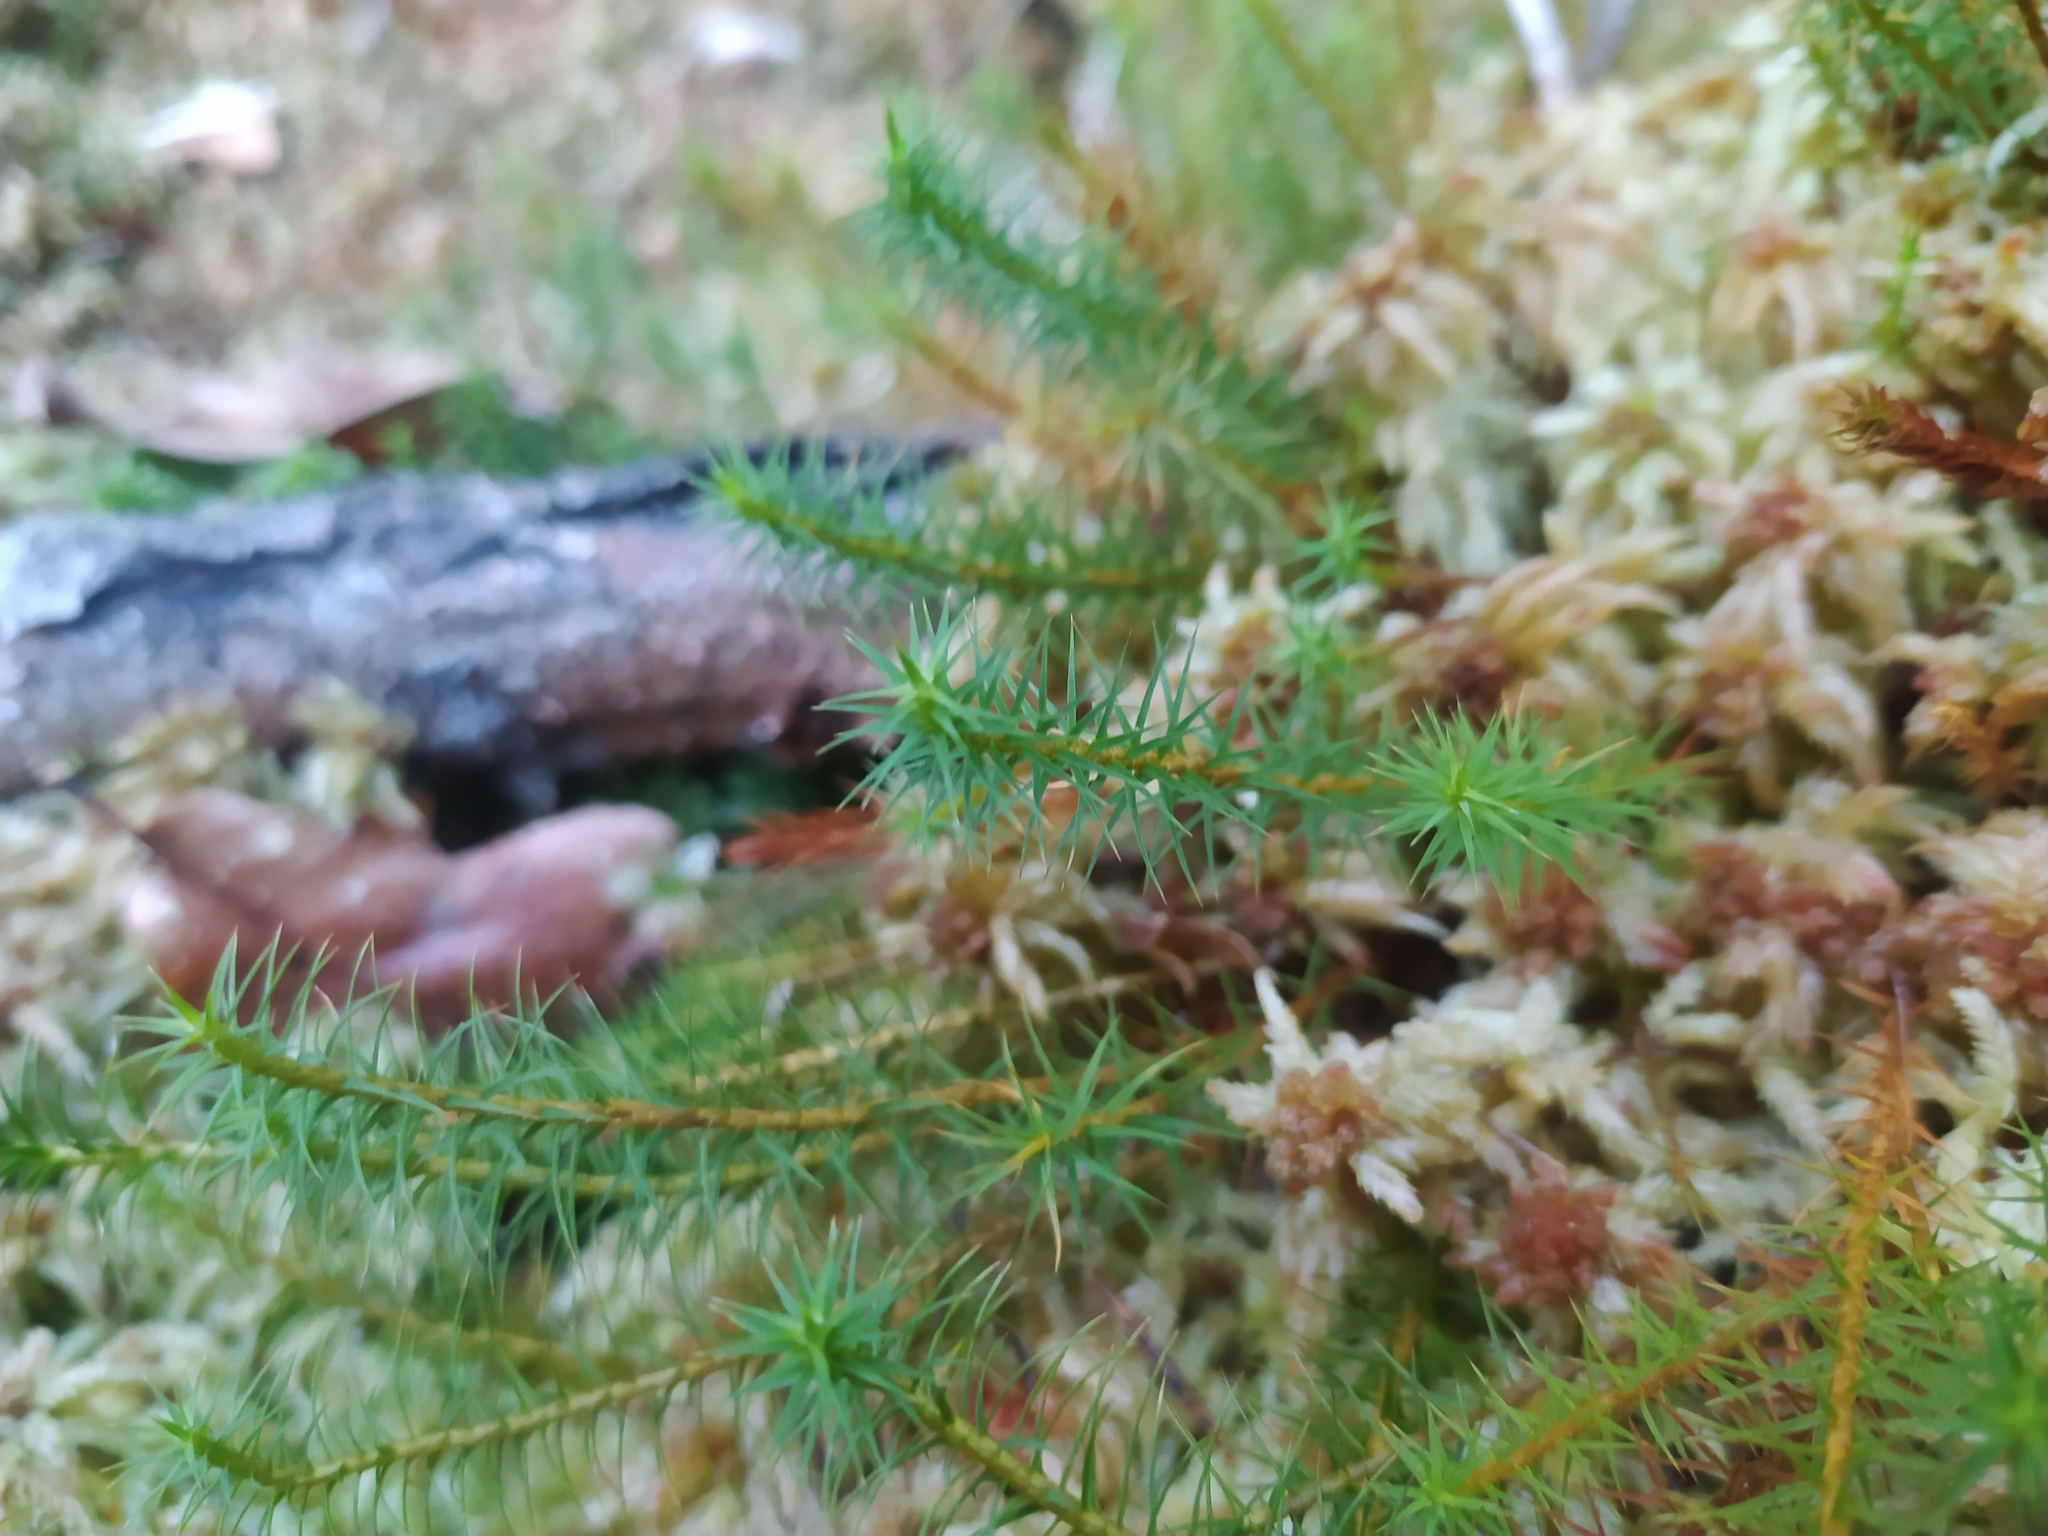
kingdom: Plantae
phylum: Bryophyta
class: Polytrichopsida
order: Polytrichales
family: Polytrichaceae
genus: Polytrichum
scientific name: Polytrichum commune
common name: Common haircap
